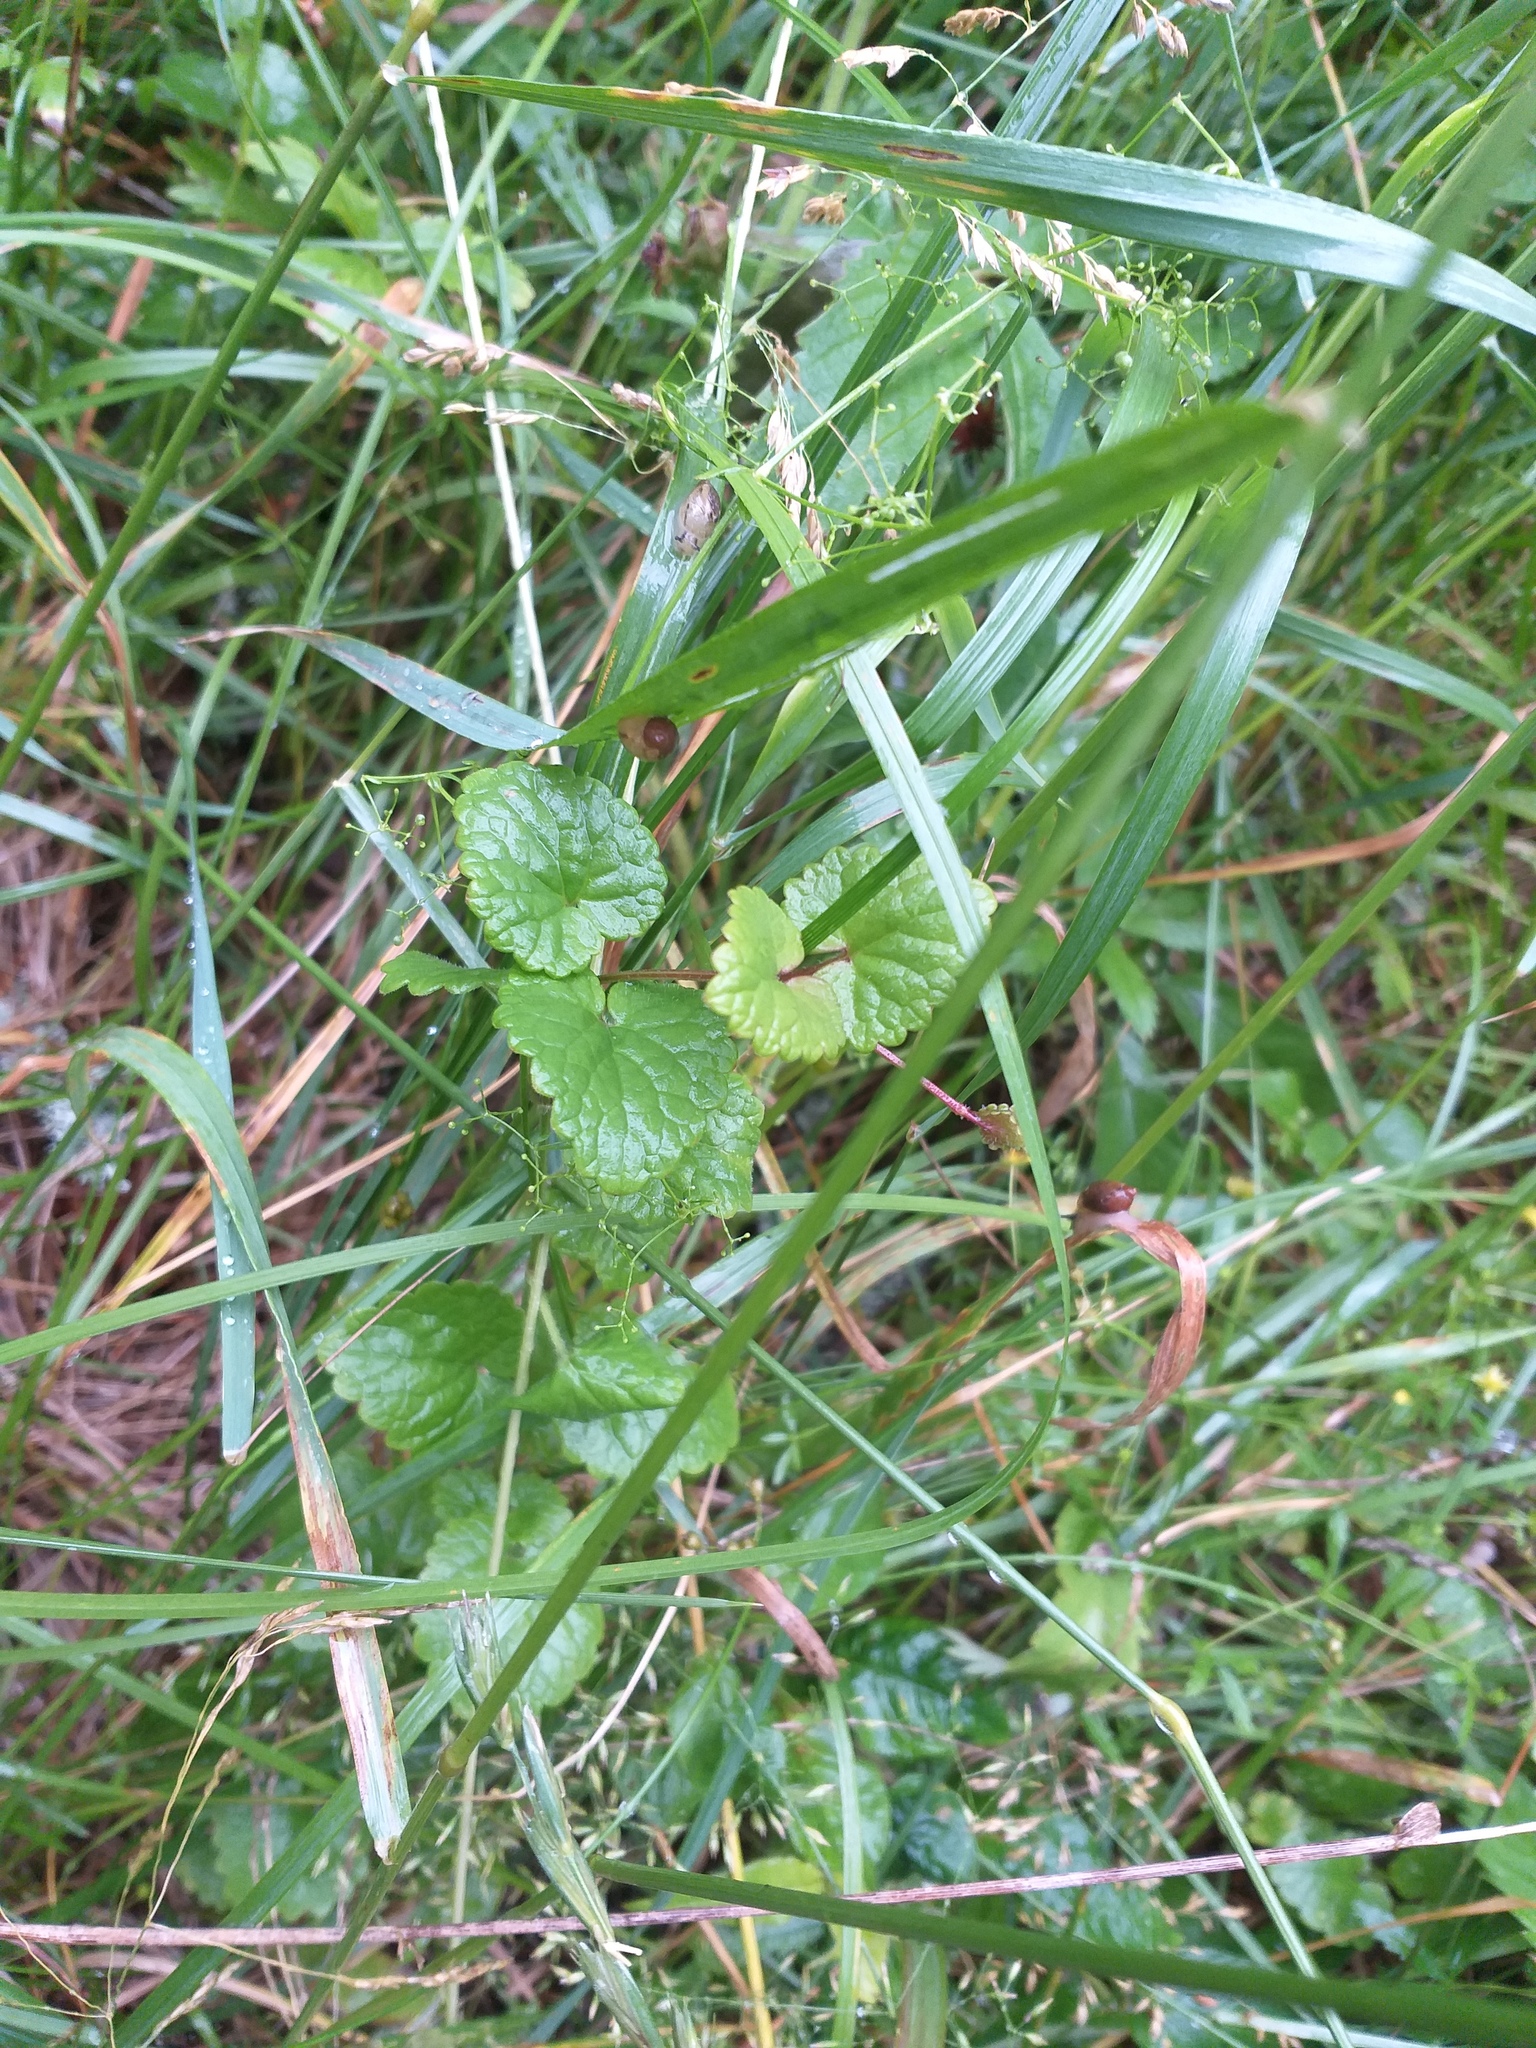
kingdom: Plantae
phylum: Tracheophyta
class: Magnoliopsida
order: Lamiales
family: Lamiaceae
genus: Glechoma
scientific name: Glechoma hederacea
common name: Ground ivy
